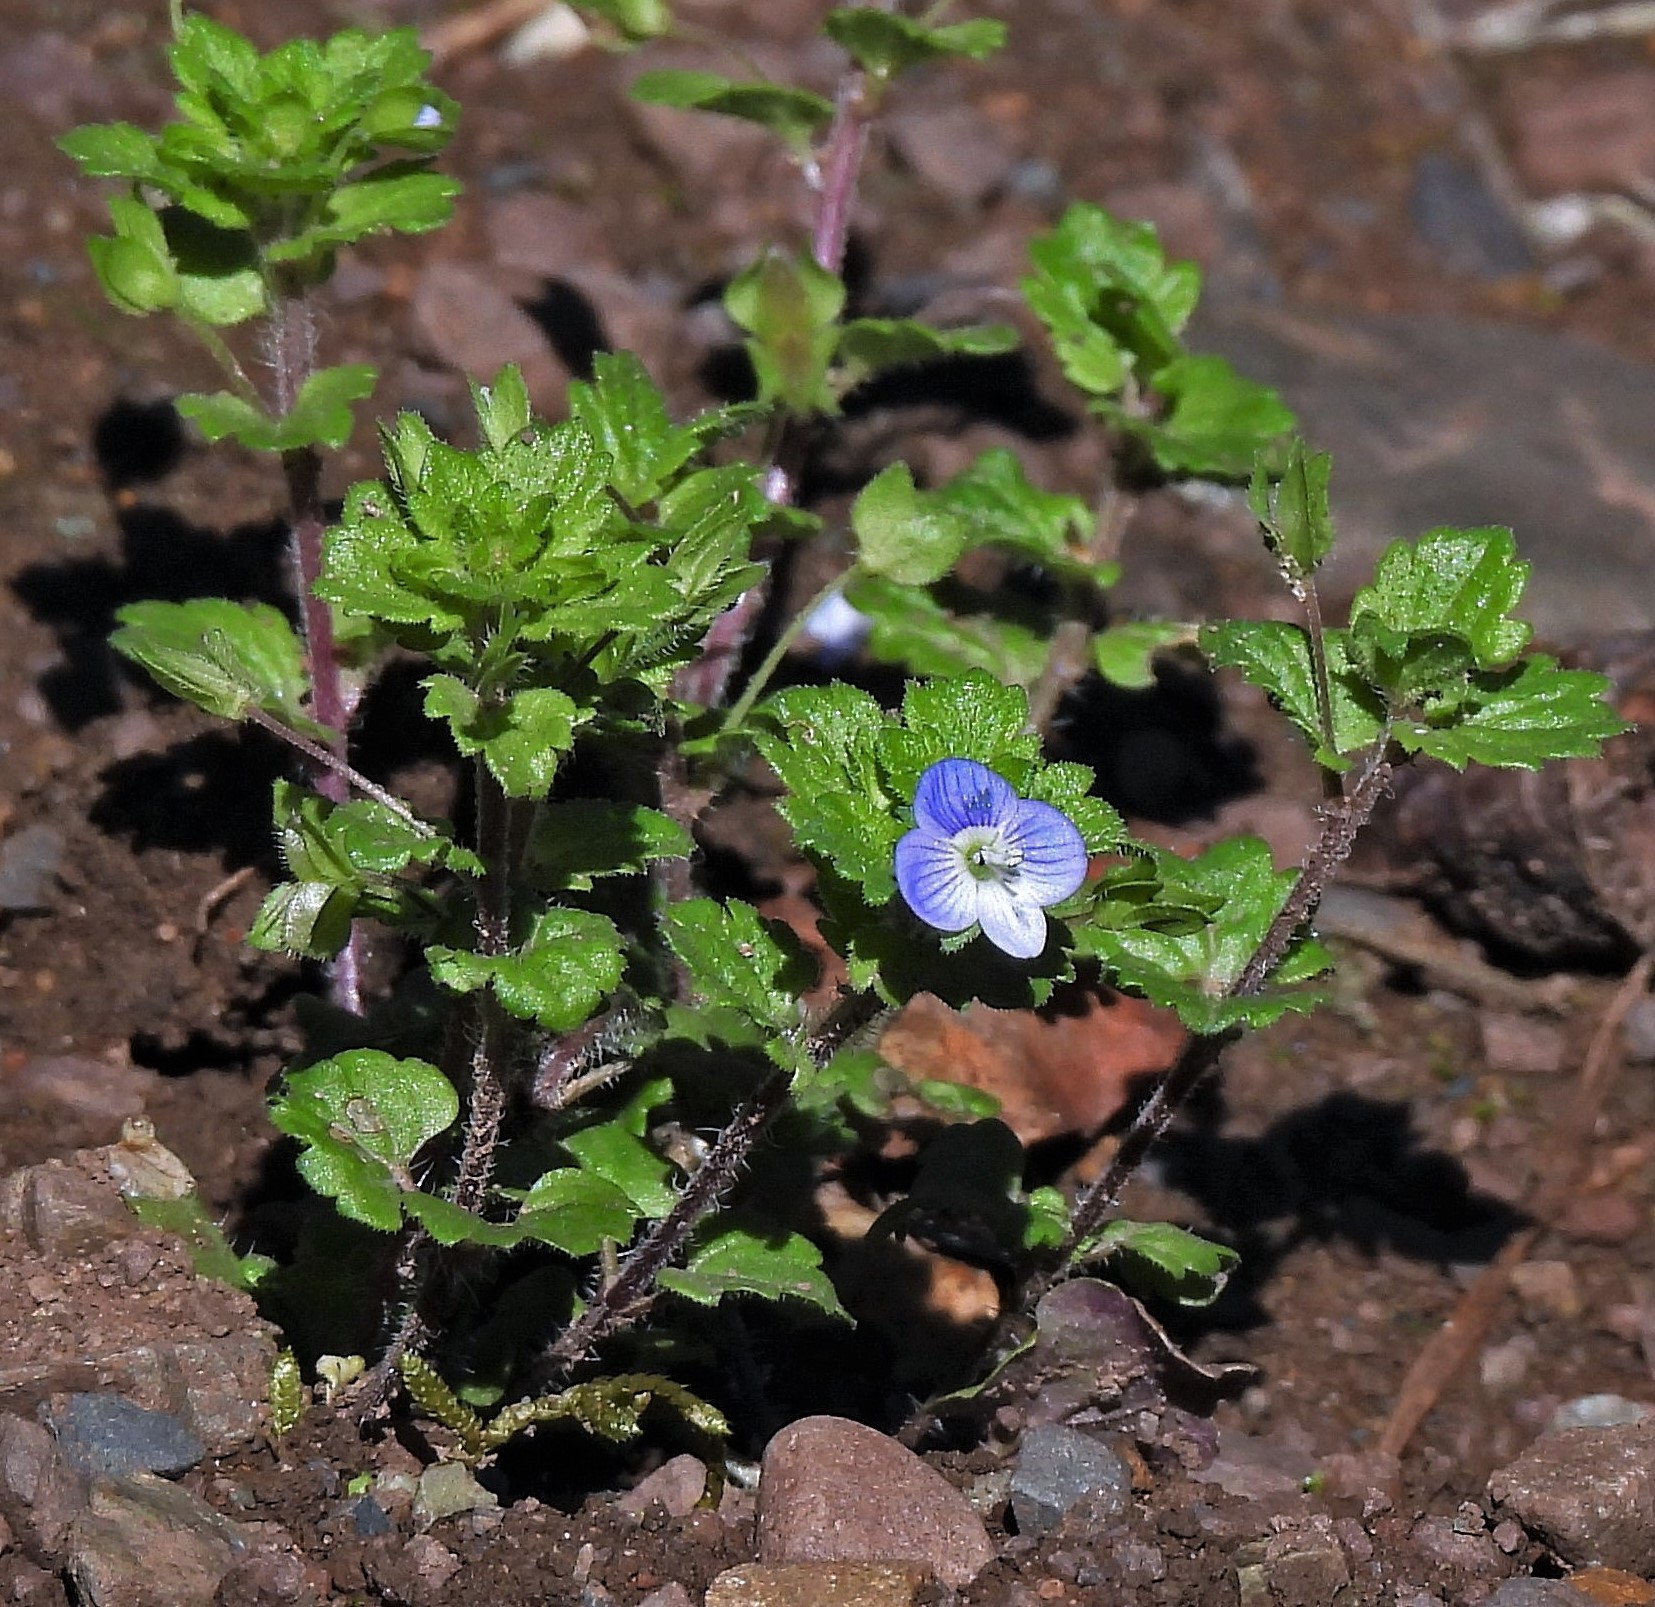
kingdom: Plantae
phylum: Tracheophyta
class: Magnoliopsida
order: Lamiales
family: Plantaginaceae
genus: Veronica
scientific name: Veronica persica
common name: Common field-speedwell
